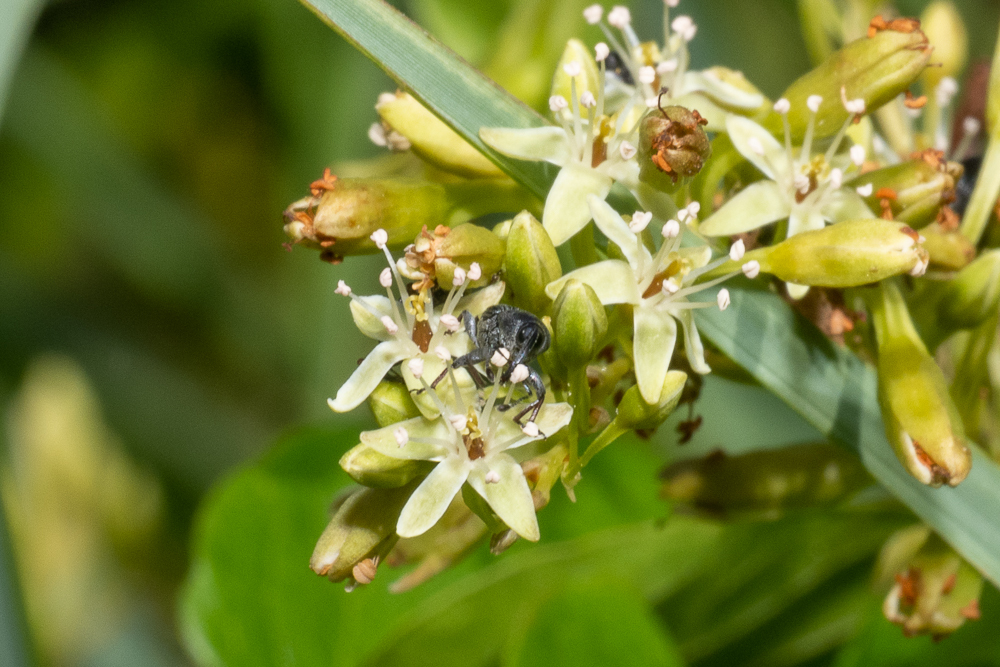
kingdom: Animalia
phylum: Arthropoda
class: Insecta
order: Coleoptera
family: Curculionidae
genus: Odontocorynus
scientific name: Odontocorynus salebrosus
